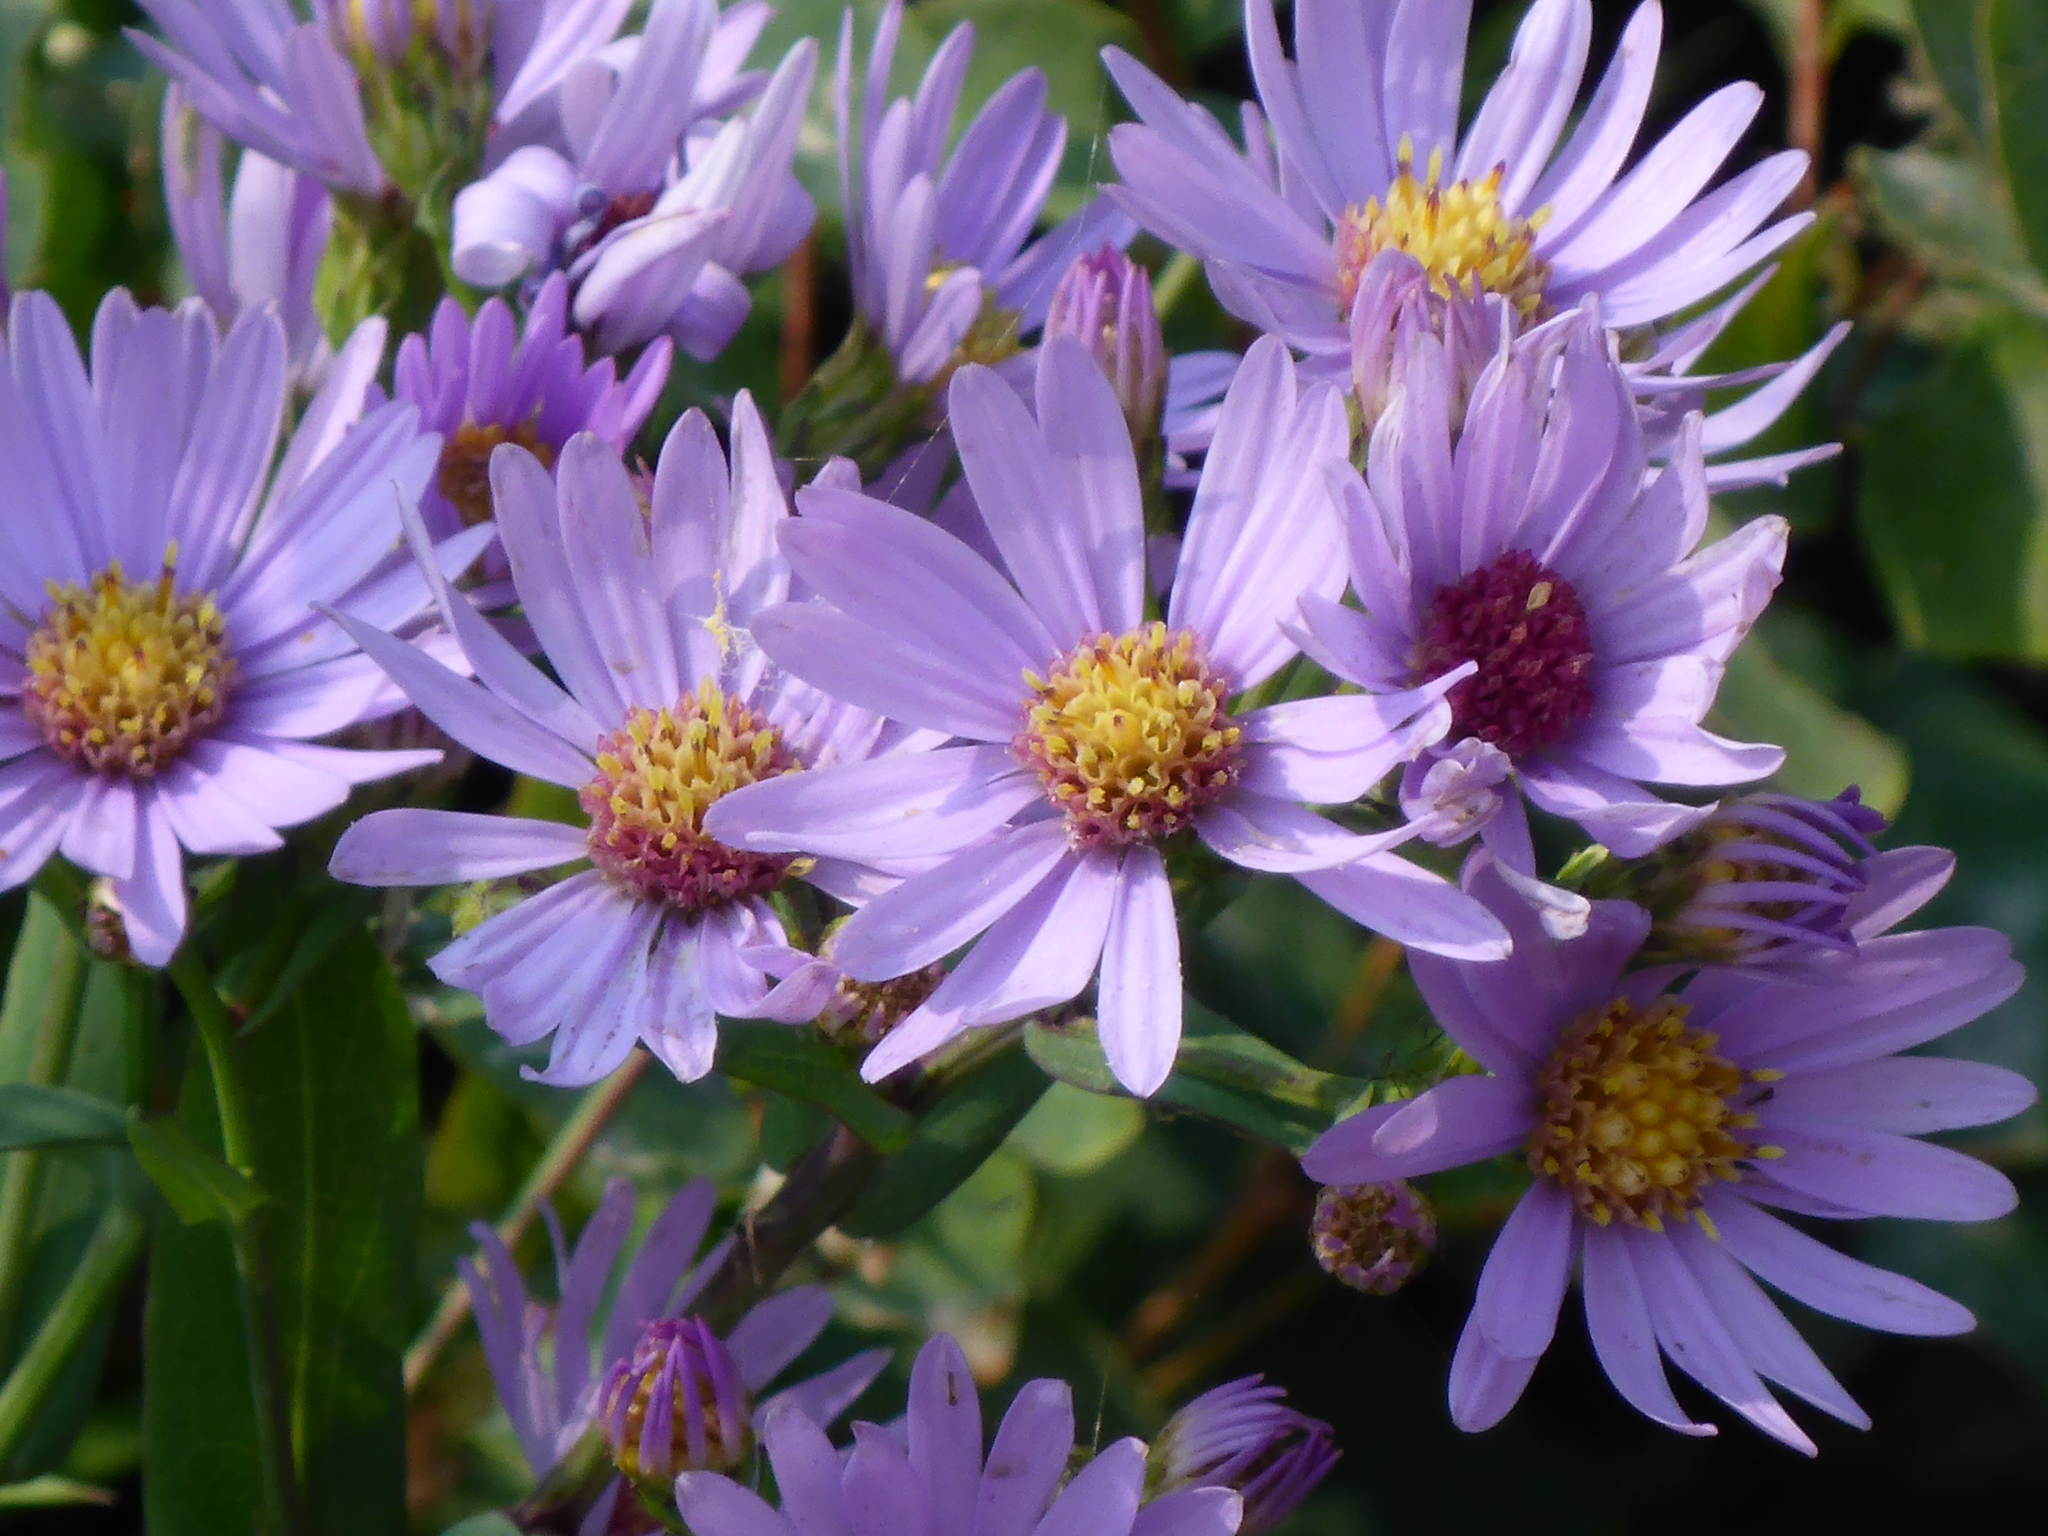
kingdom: Plantae
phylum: Tracheophyta
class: Magnoliopsida
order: Asterales
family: Asteraceae
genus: Symphyotrichum
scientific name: Symphyotrichum laeve
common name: Glaucous aster
